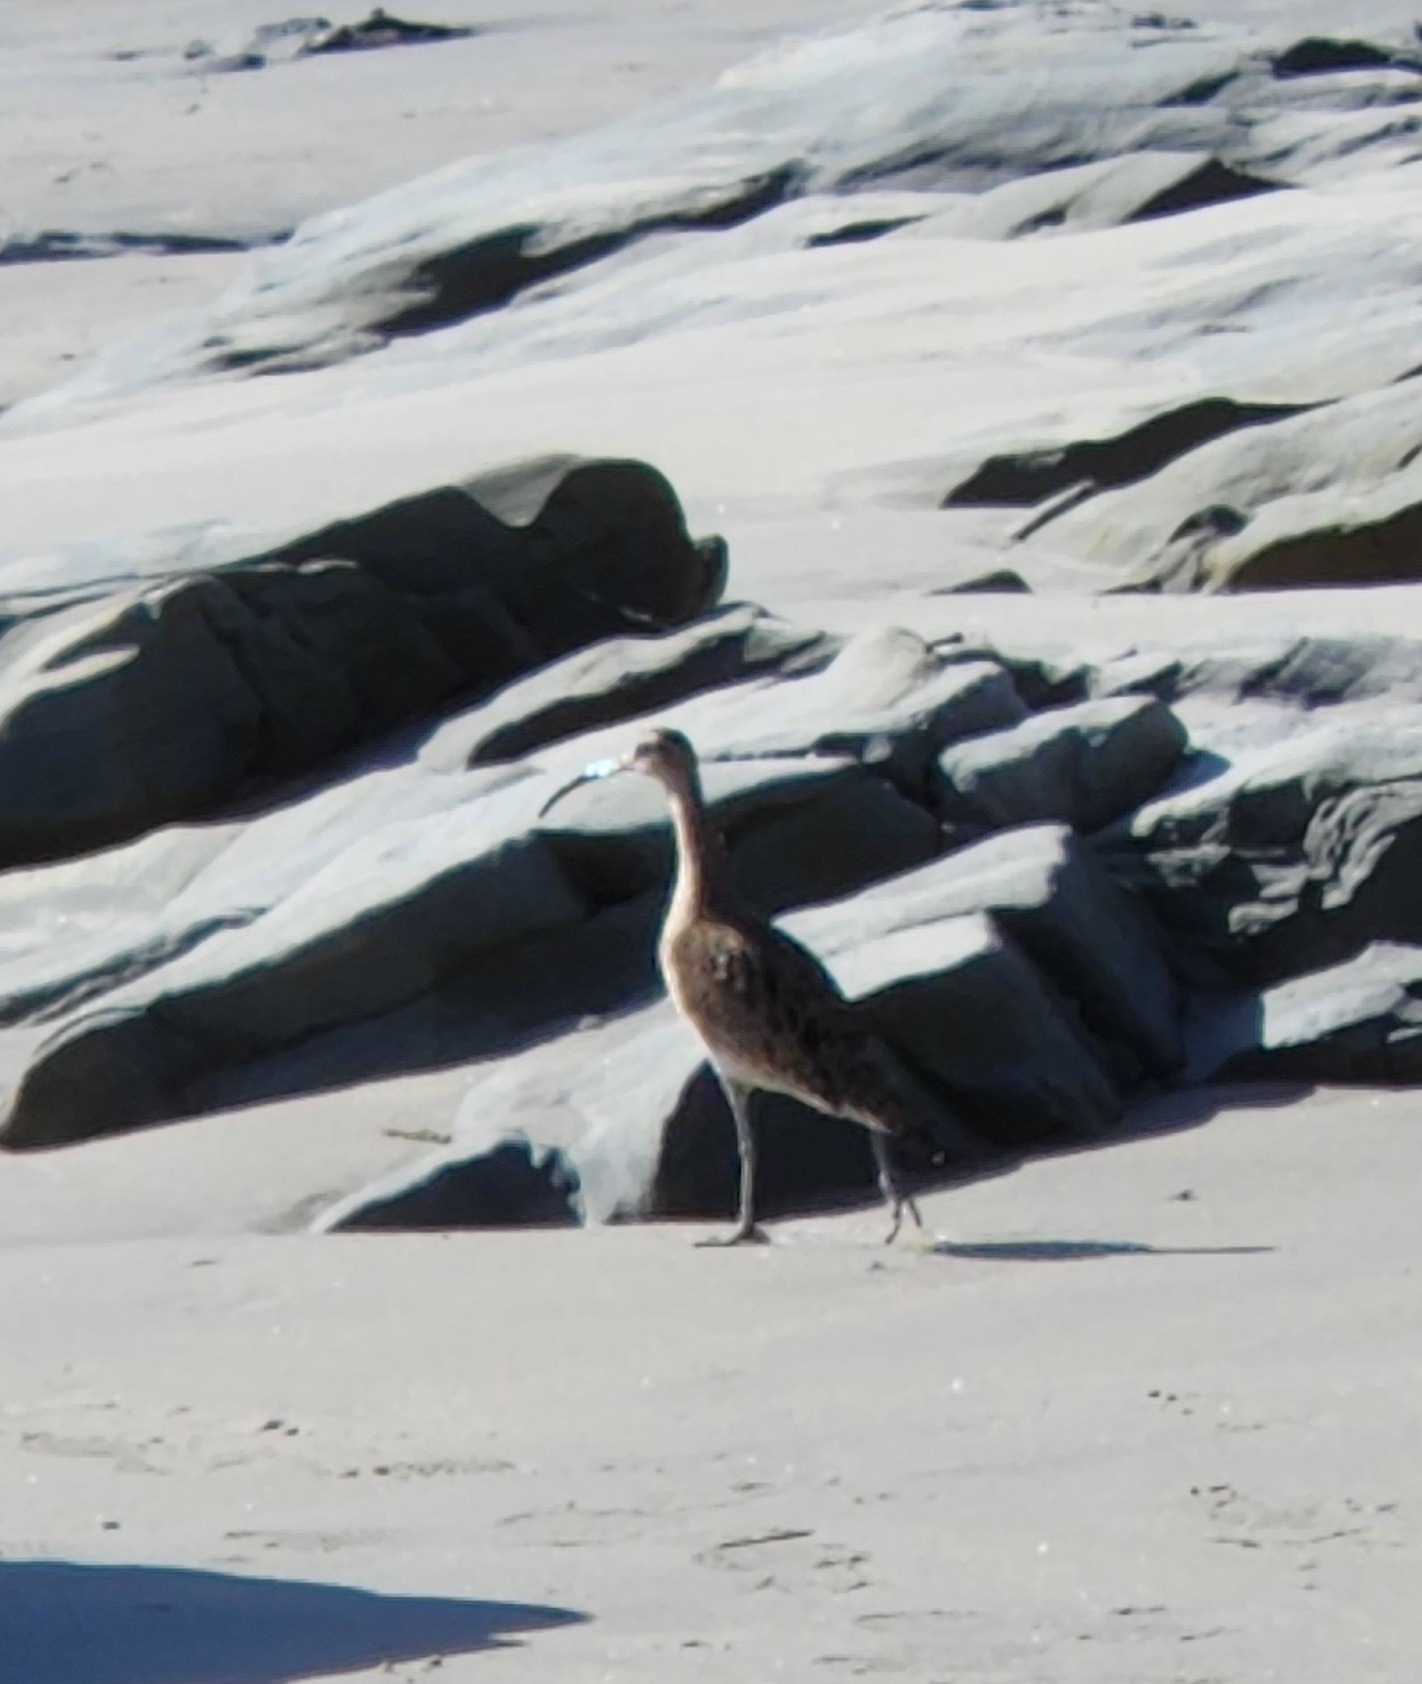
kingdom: Animalia
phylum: Chordata
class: Aves
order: Charadriiformes
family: Scolopacidae
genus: Numenius
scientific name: Numenius phaeopus
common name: Whimbrel
